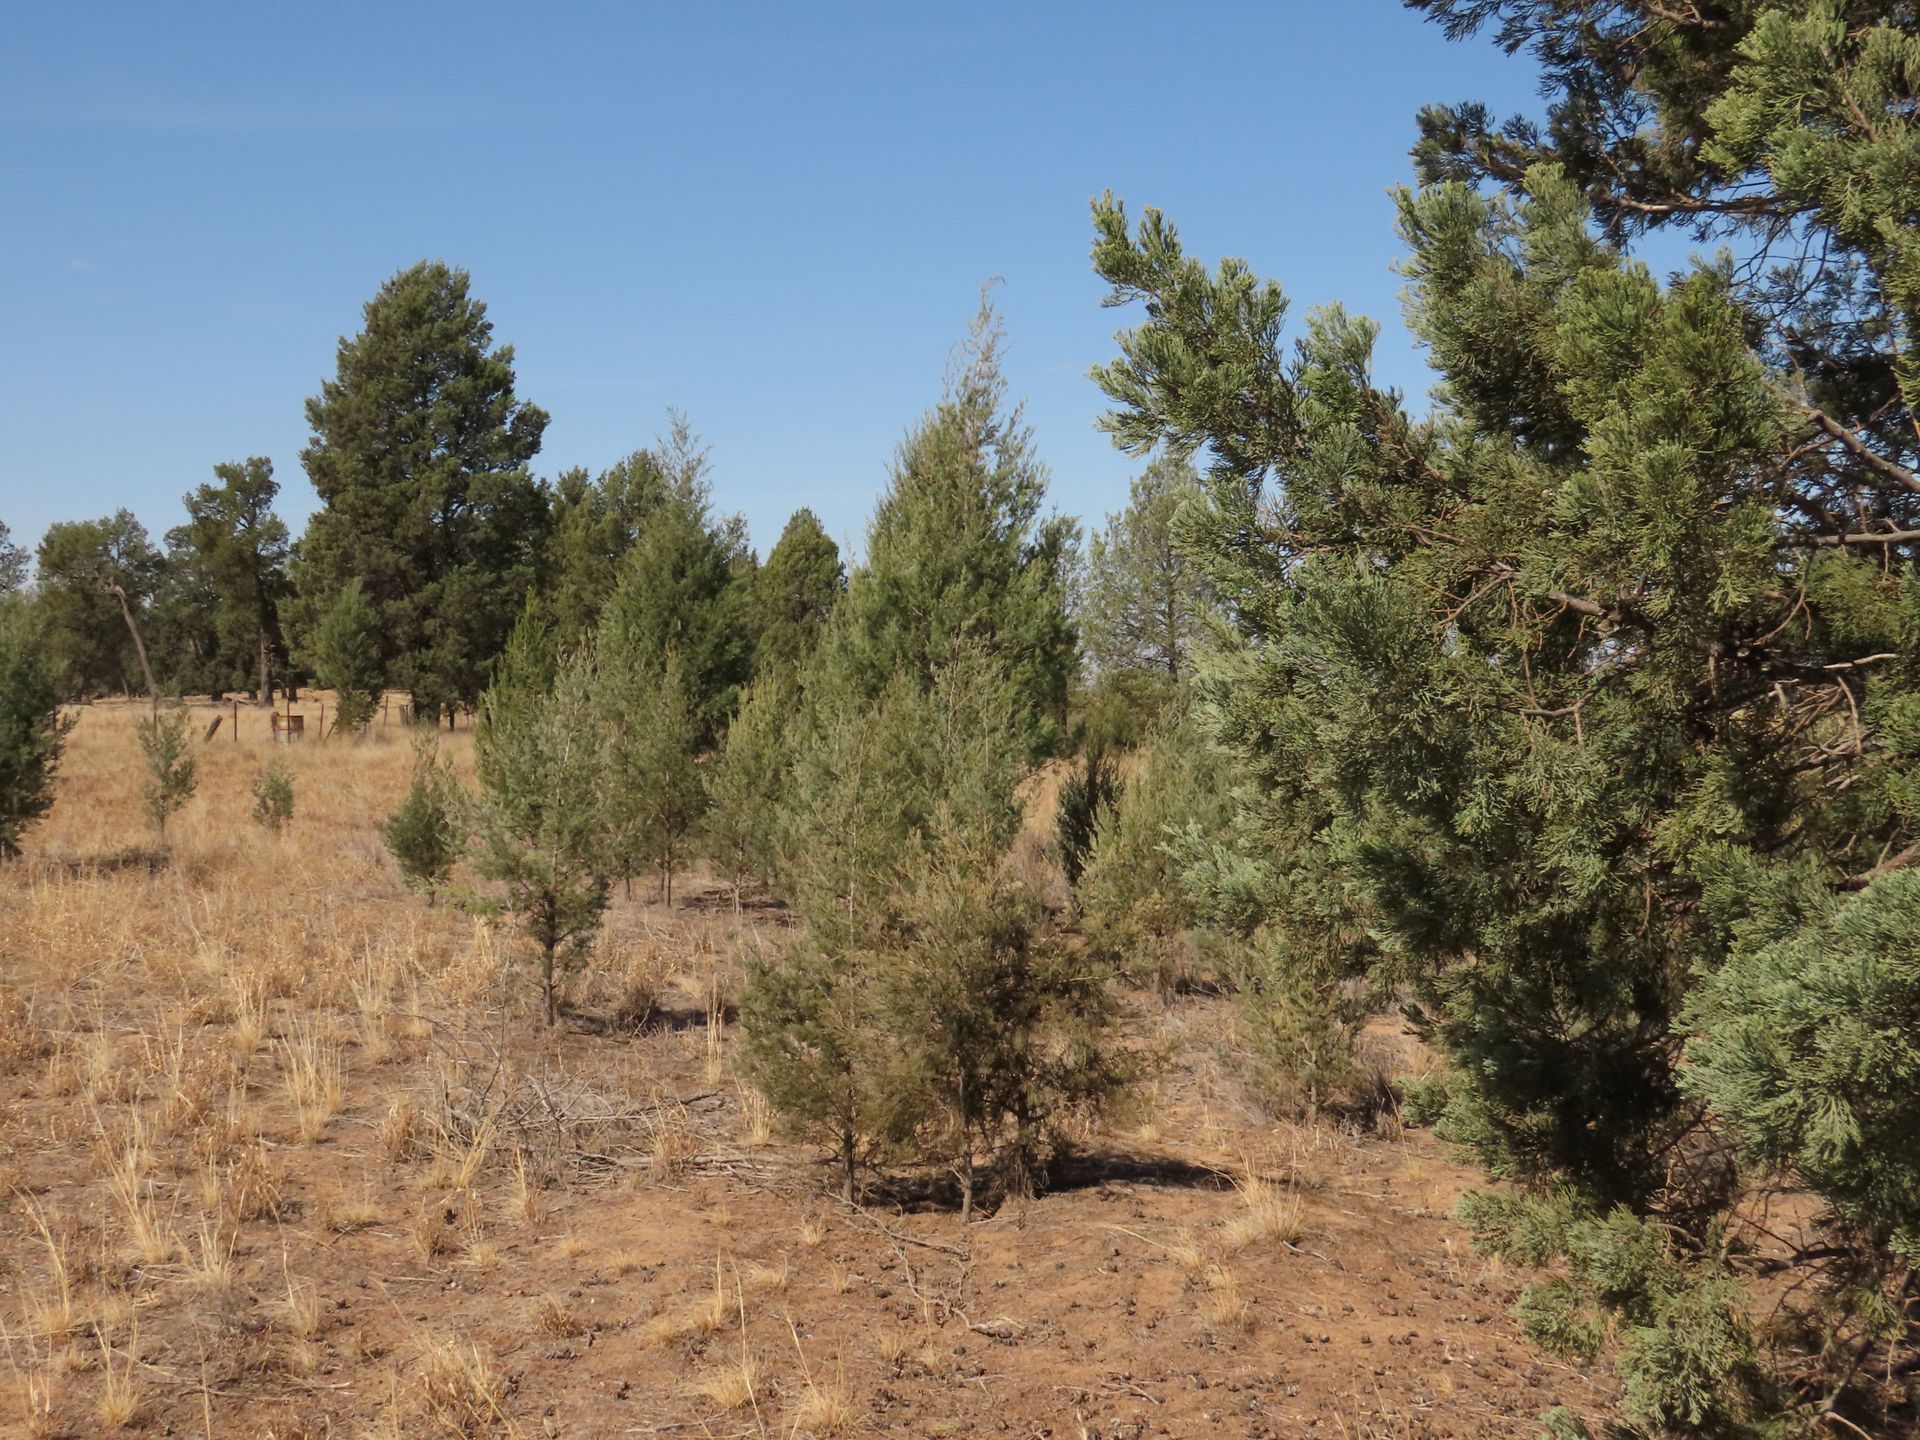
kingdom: Plantae
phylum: Tracheophyta
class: Pinopsida
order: Pinales
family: Cupressaceae
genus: Callitris
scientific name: Callitris preissii
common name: Mallee pine
